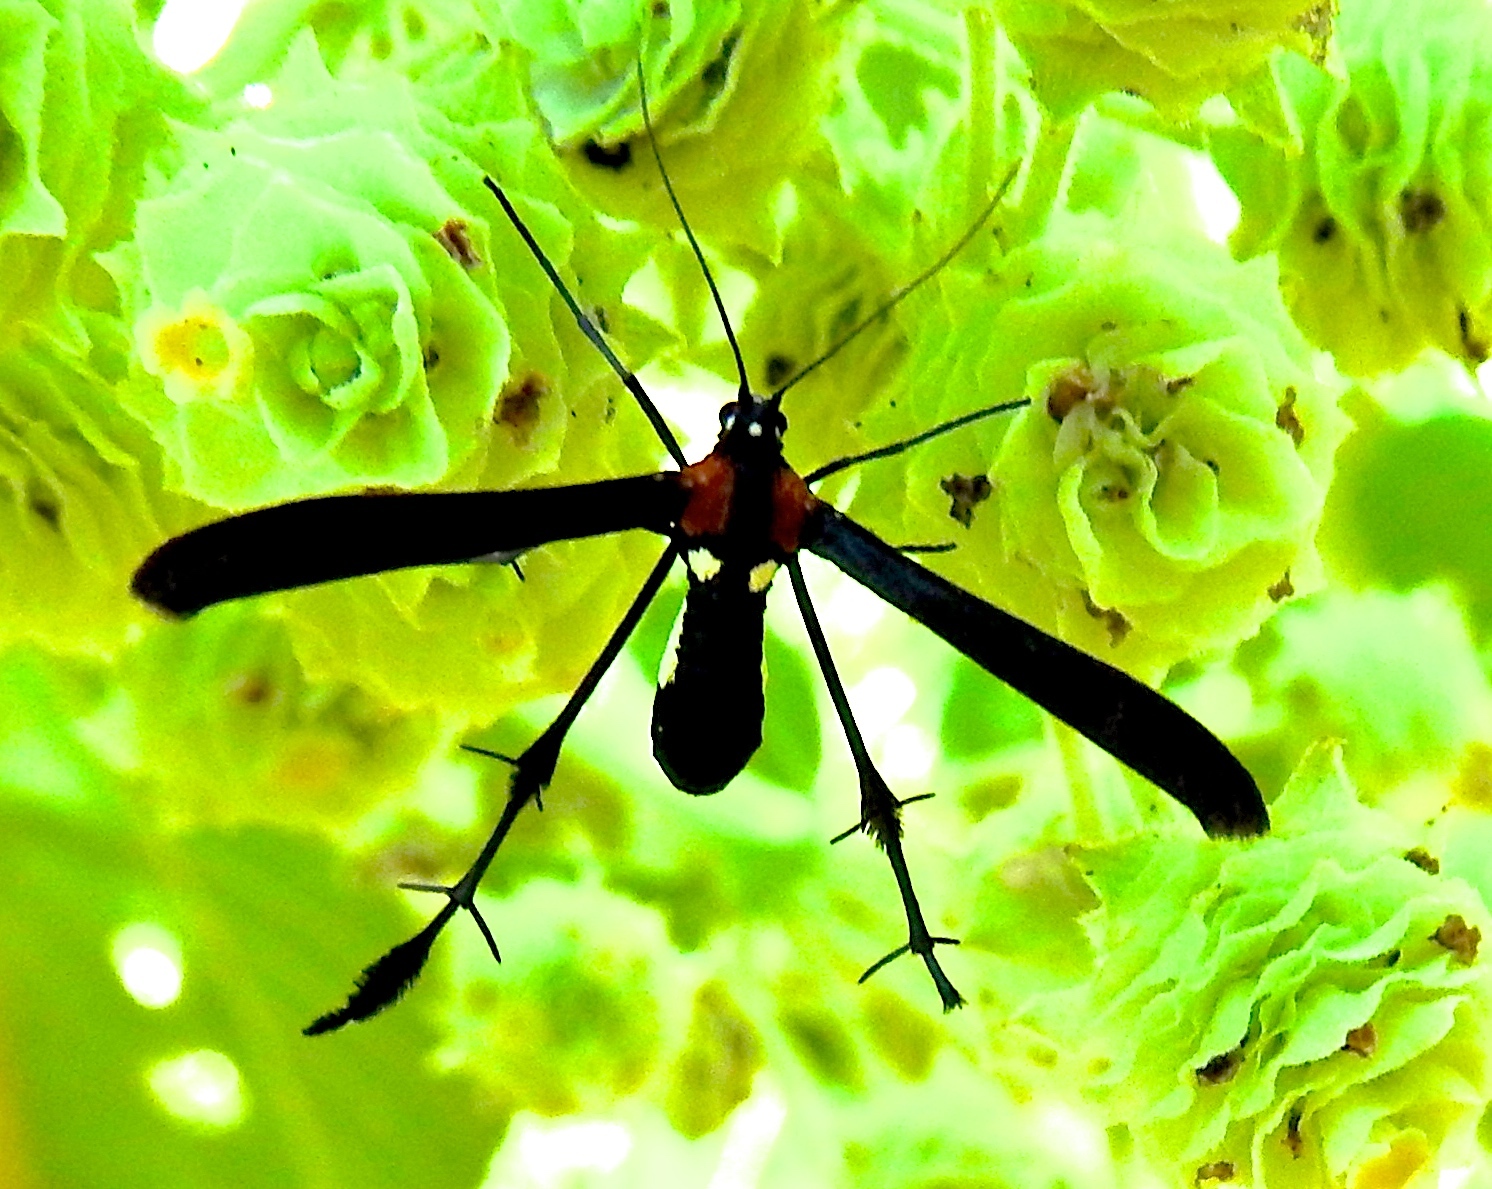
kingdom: Animalia
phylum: Arthropoda
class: Insecta
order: Lepidoptera
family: Pterophoridae
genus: Hellinsia
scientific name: Hellinsia chamelai
